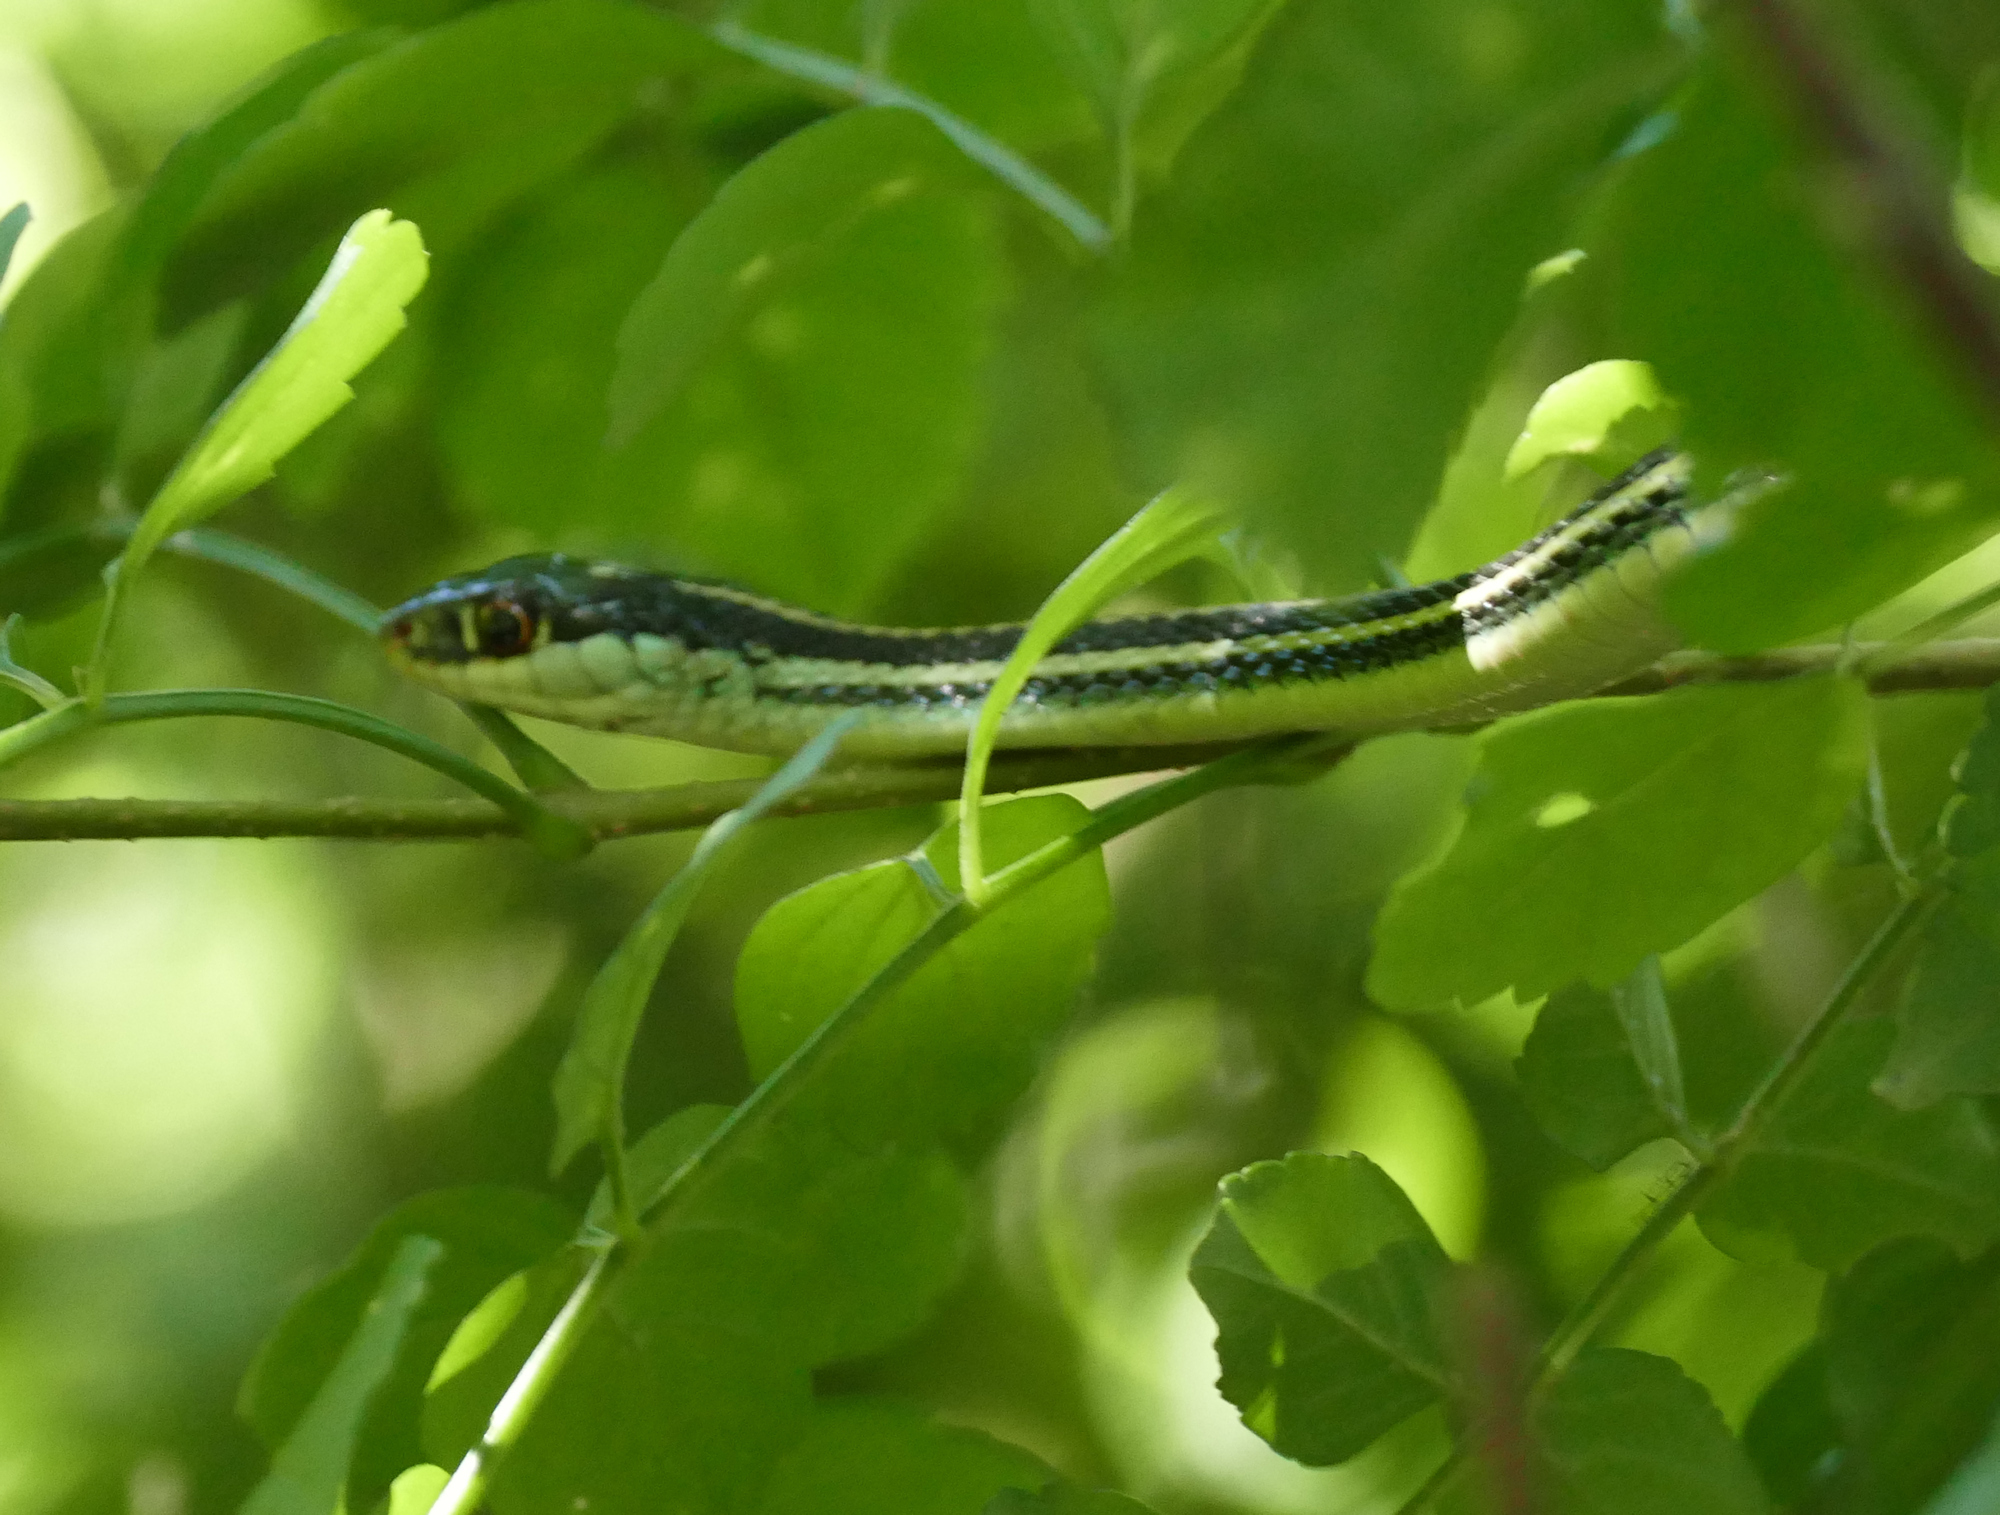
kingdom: Animalia
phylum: Chordata
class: Squamata
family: Colubridae
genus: Thamnophis
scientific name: Thamnophis proximus
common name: Western ribbon snake
